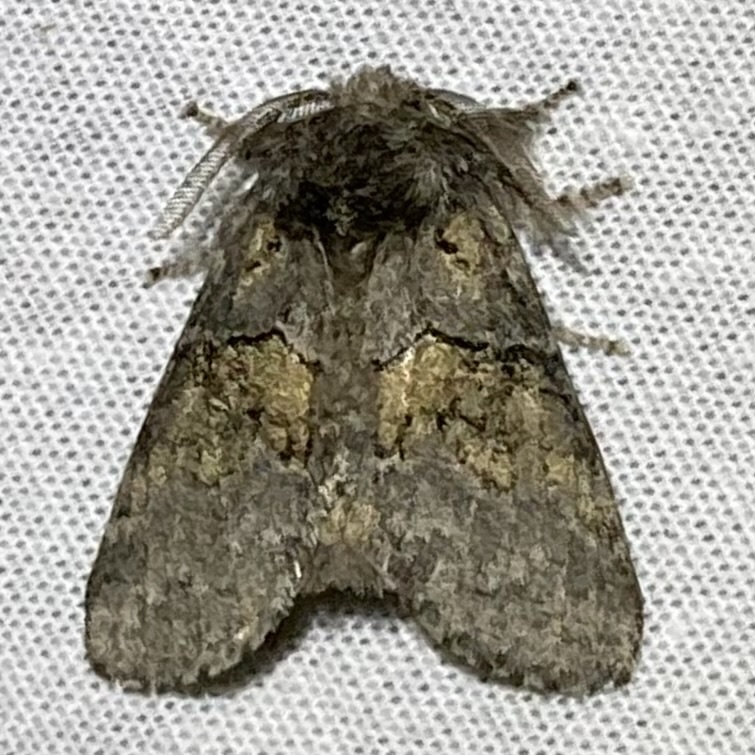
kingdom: Animalia
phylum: Arthropoda
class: Insecta
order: Lepidoptera
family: Notodontidae
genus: Gluphisia
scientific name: Gluphisia septentrionis
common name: Common gluphisia
